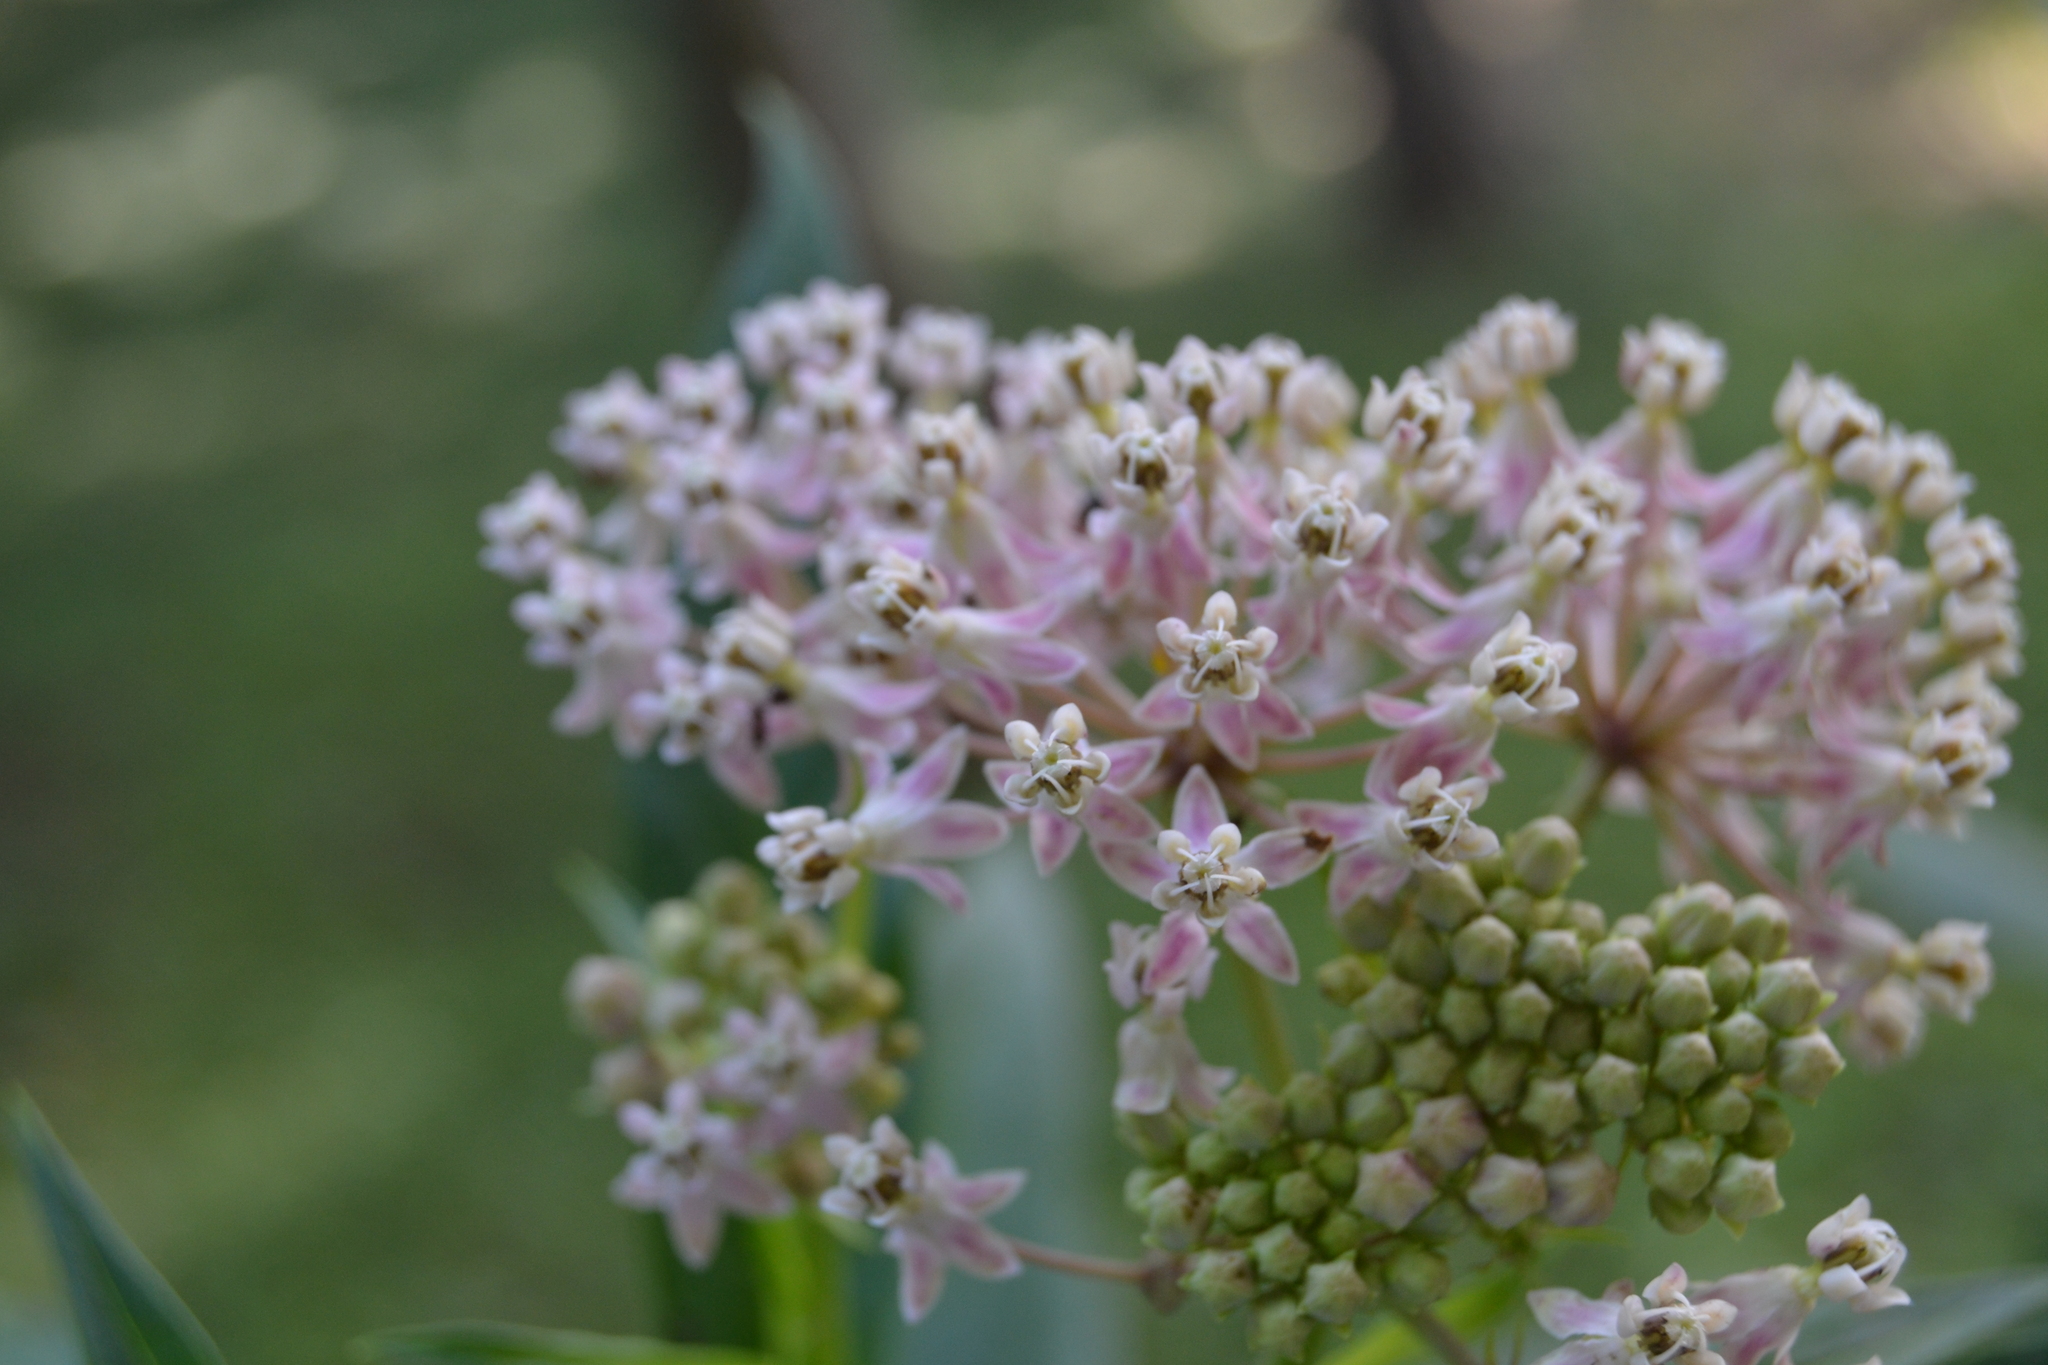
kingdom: Plantae
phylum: Tracheophyta
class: Magnoliopsida
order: Gentianales
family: Apocynaceae
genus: Asclepias
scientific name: Asclepias incarnata
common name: Swamp milkweed
